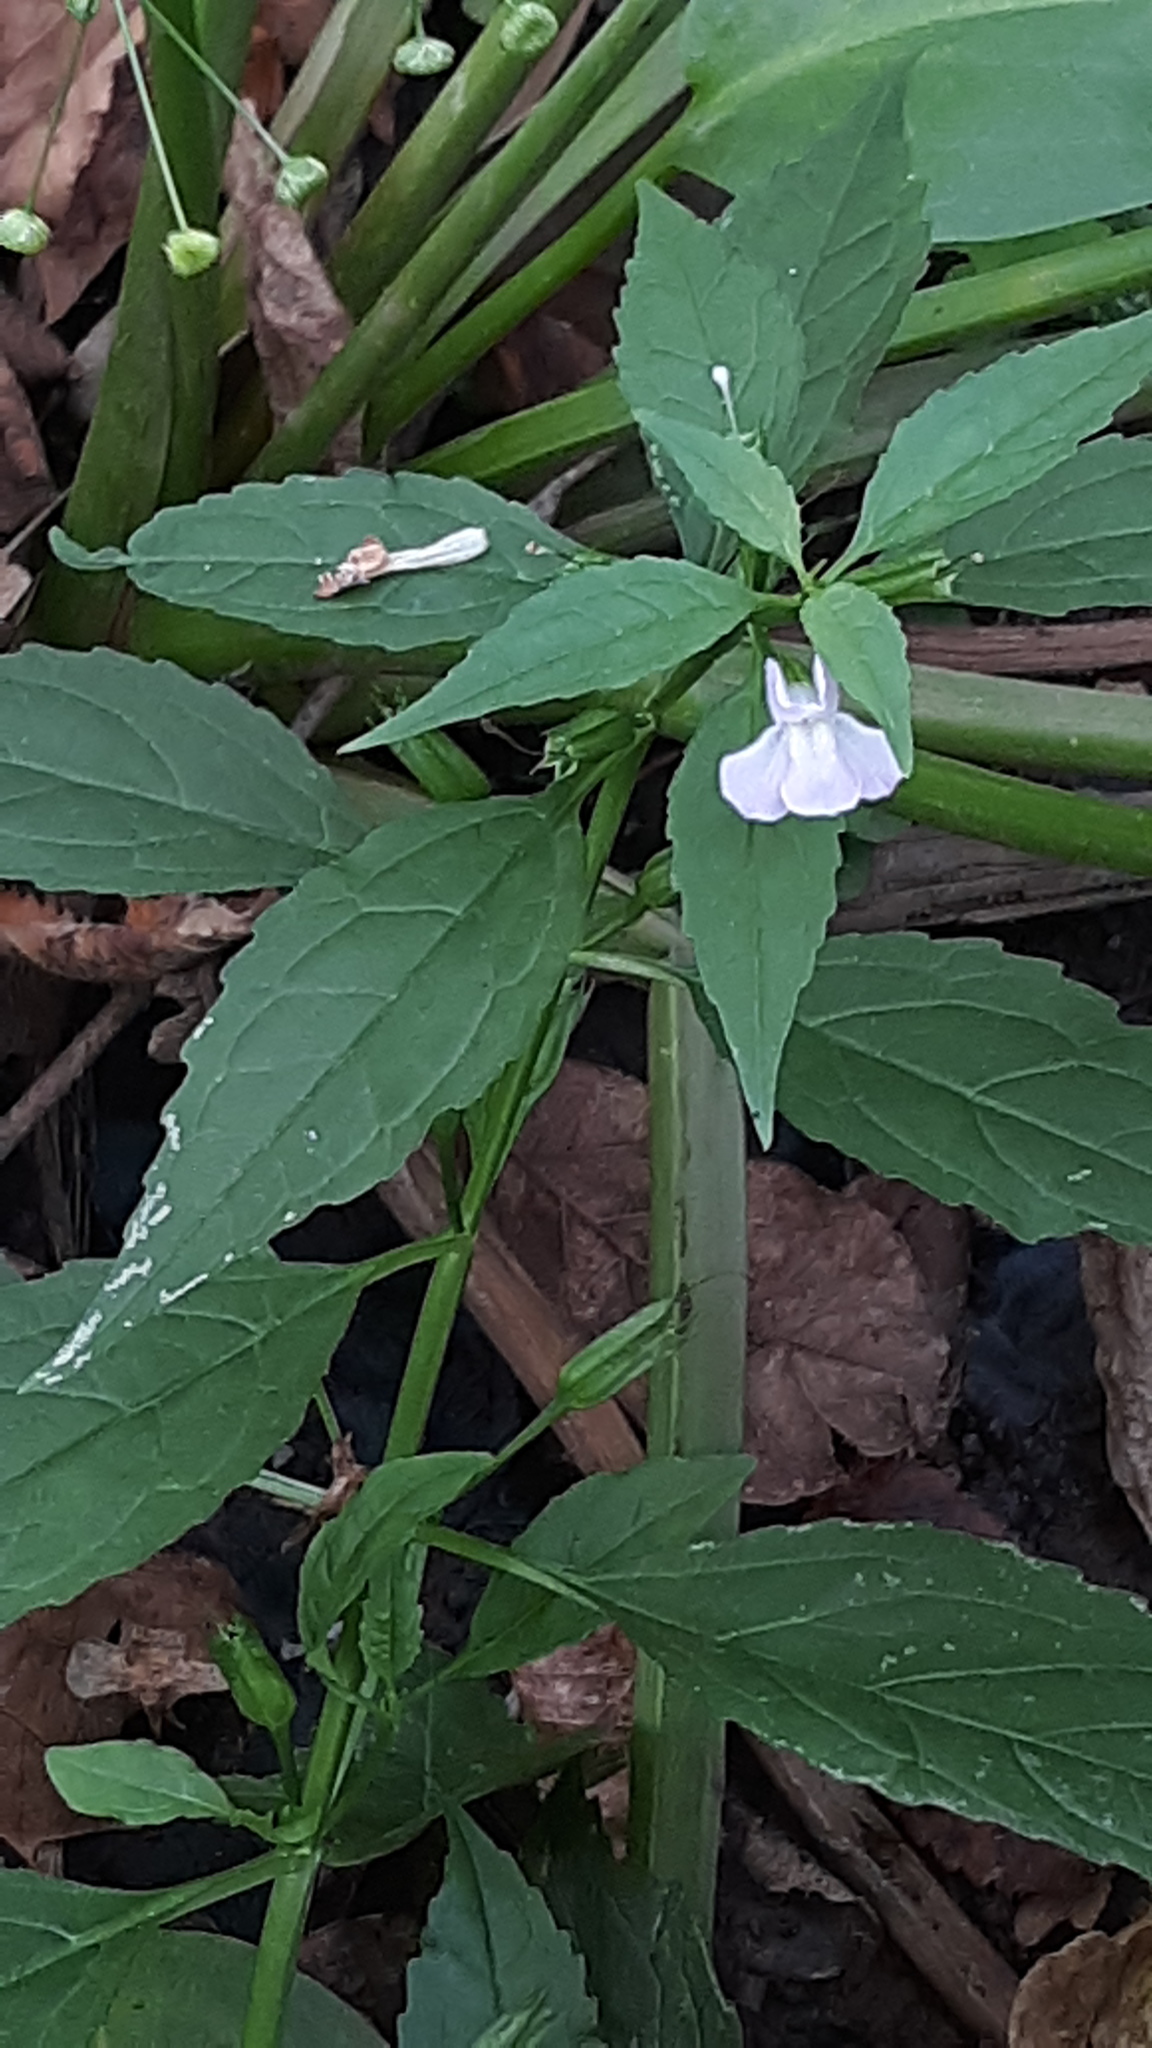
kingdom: Plantae
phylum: Tracheophyta
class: Magnoliopsida
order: Lamiales
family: Phrymaceae
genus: Mimulus
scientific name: Mimulus alatus
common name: Sharp-wing monkey-flower
